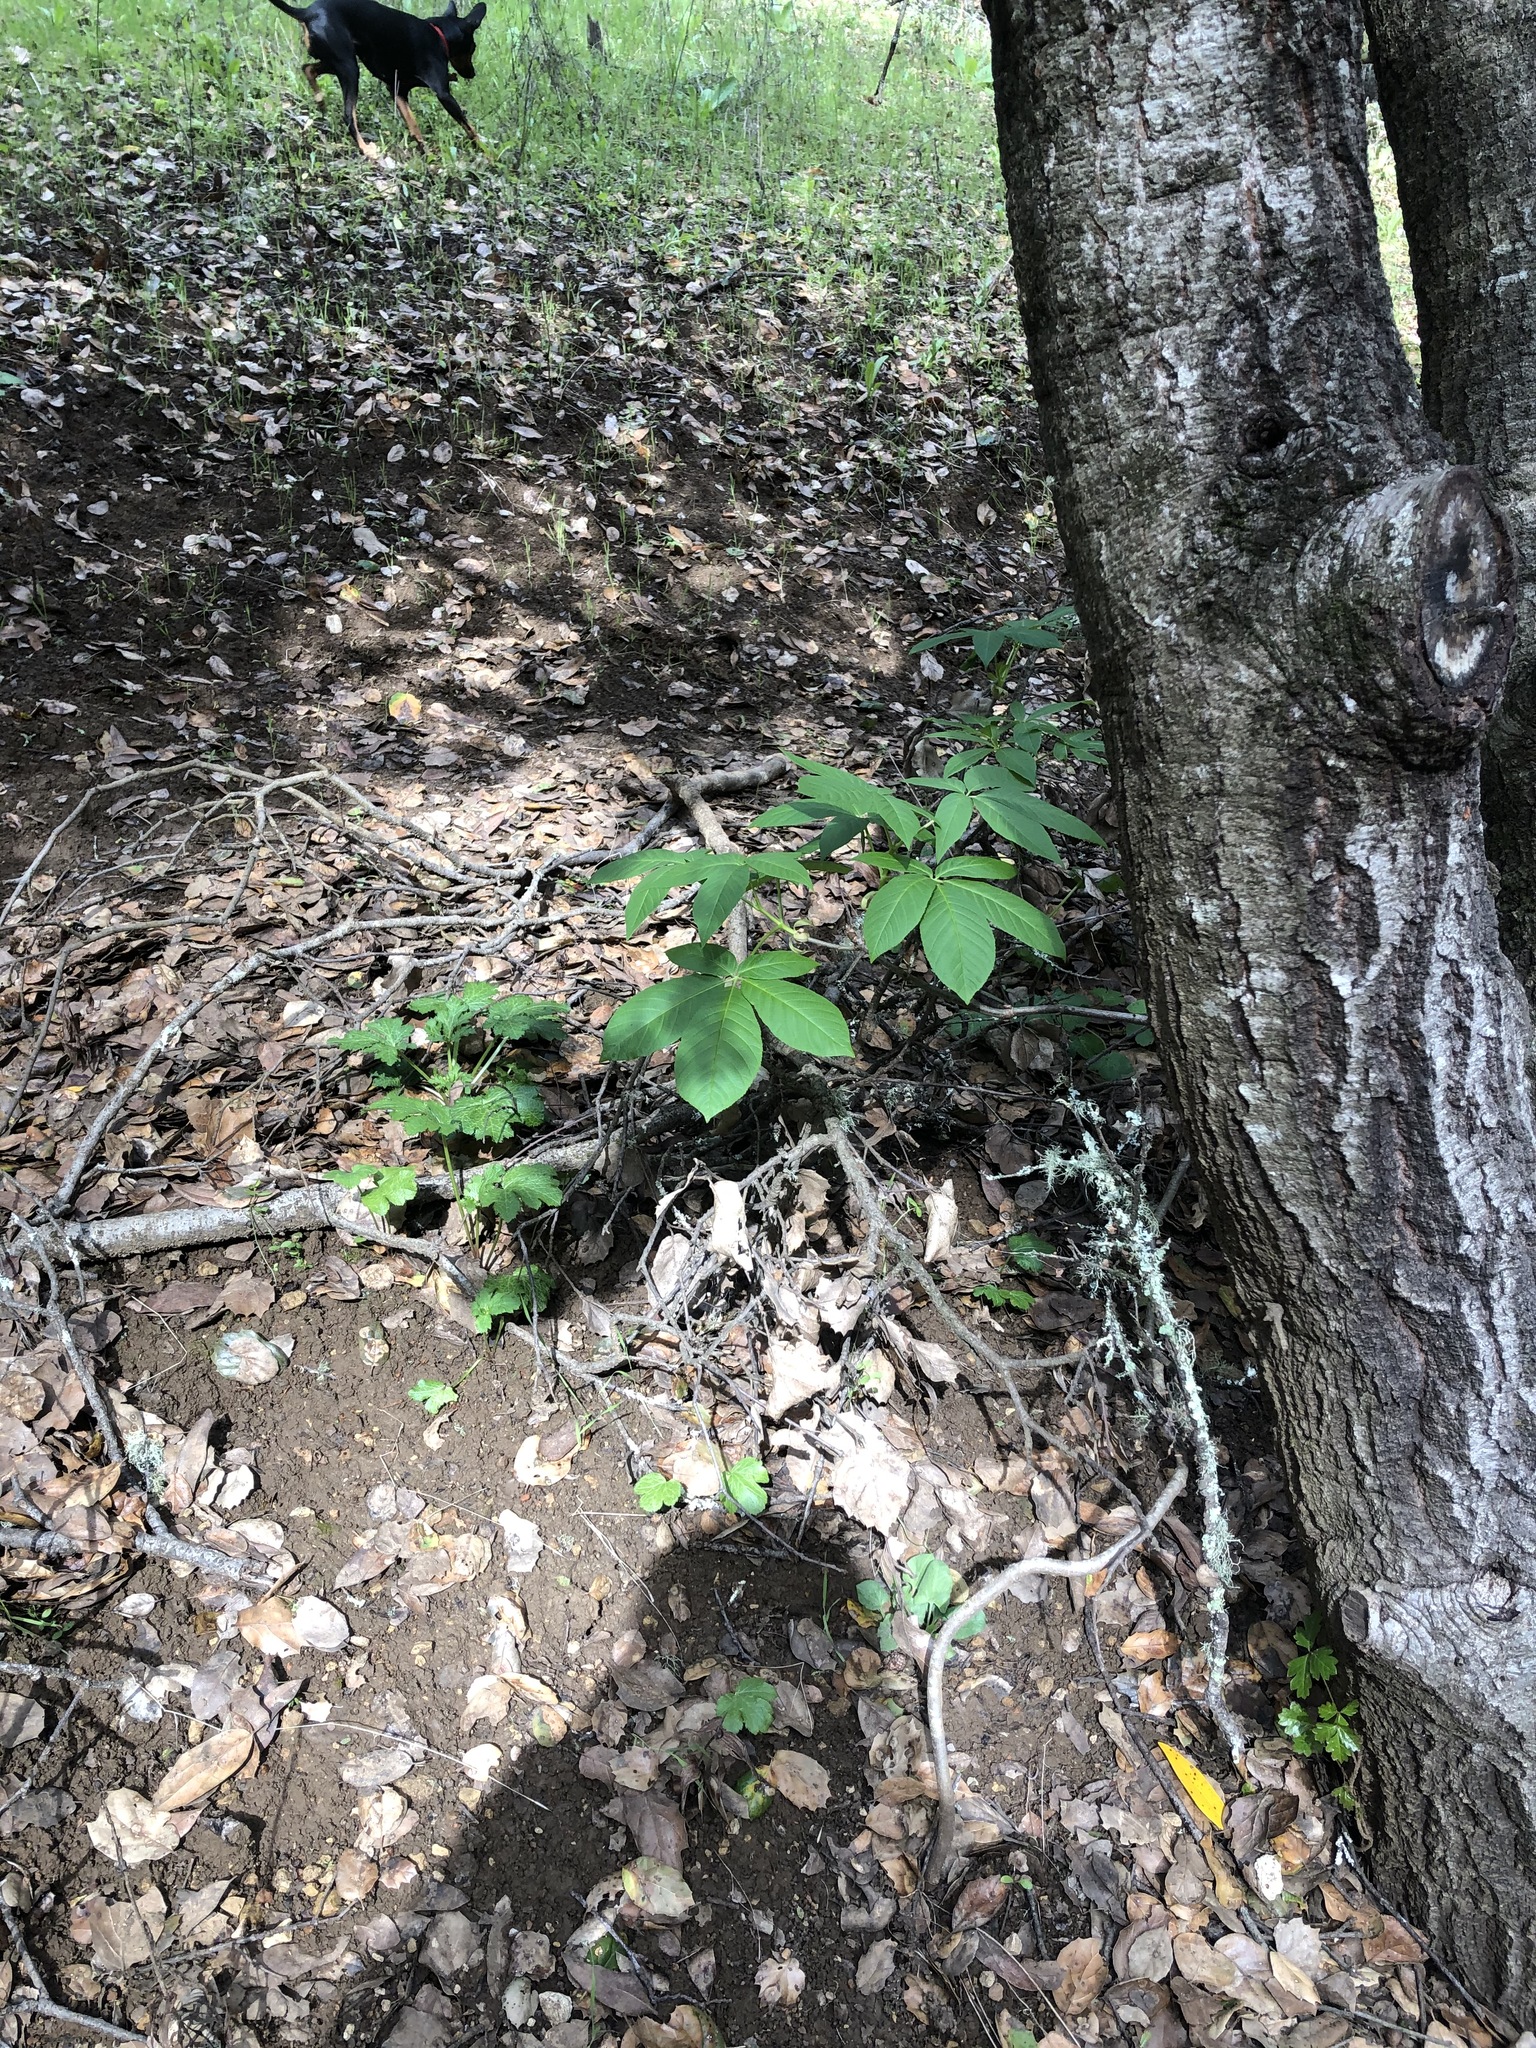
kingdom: Plantae
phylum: Tracheophyta
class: Magnoliopsida
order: Sapindales
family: Sapindaceae
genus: Aesculus
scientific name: Aesculus californica
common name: California buckeye
